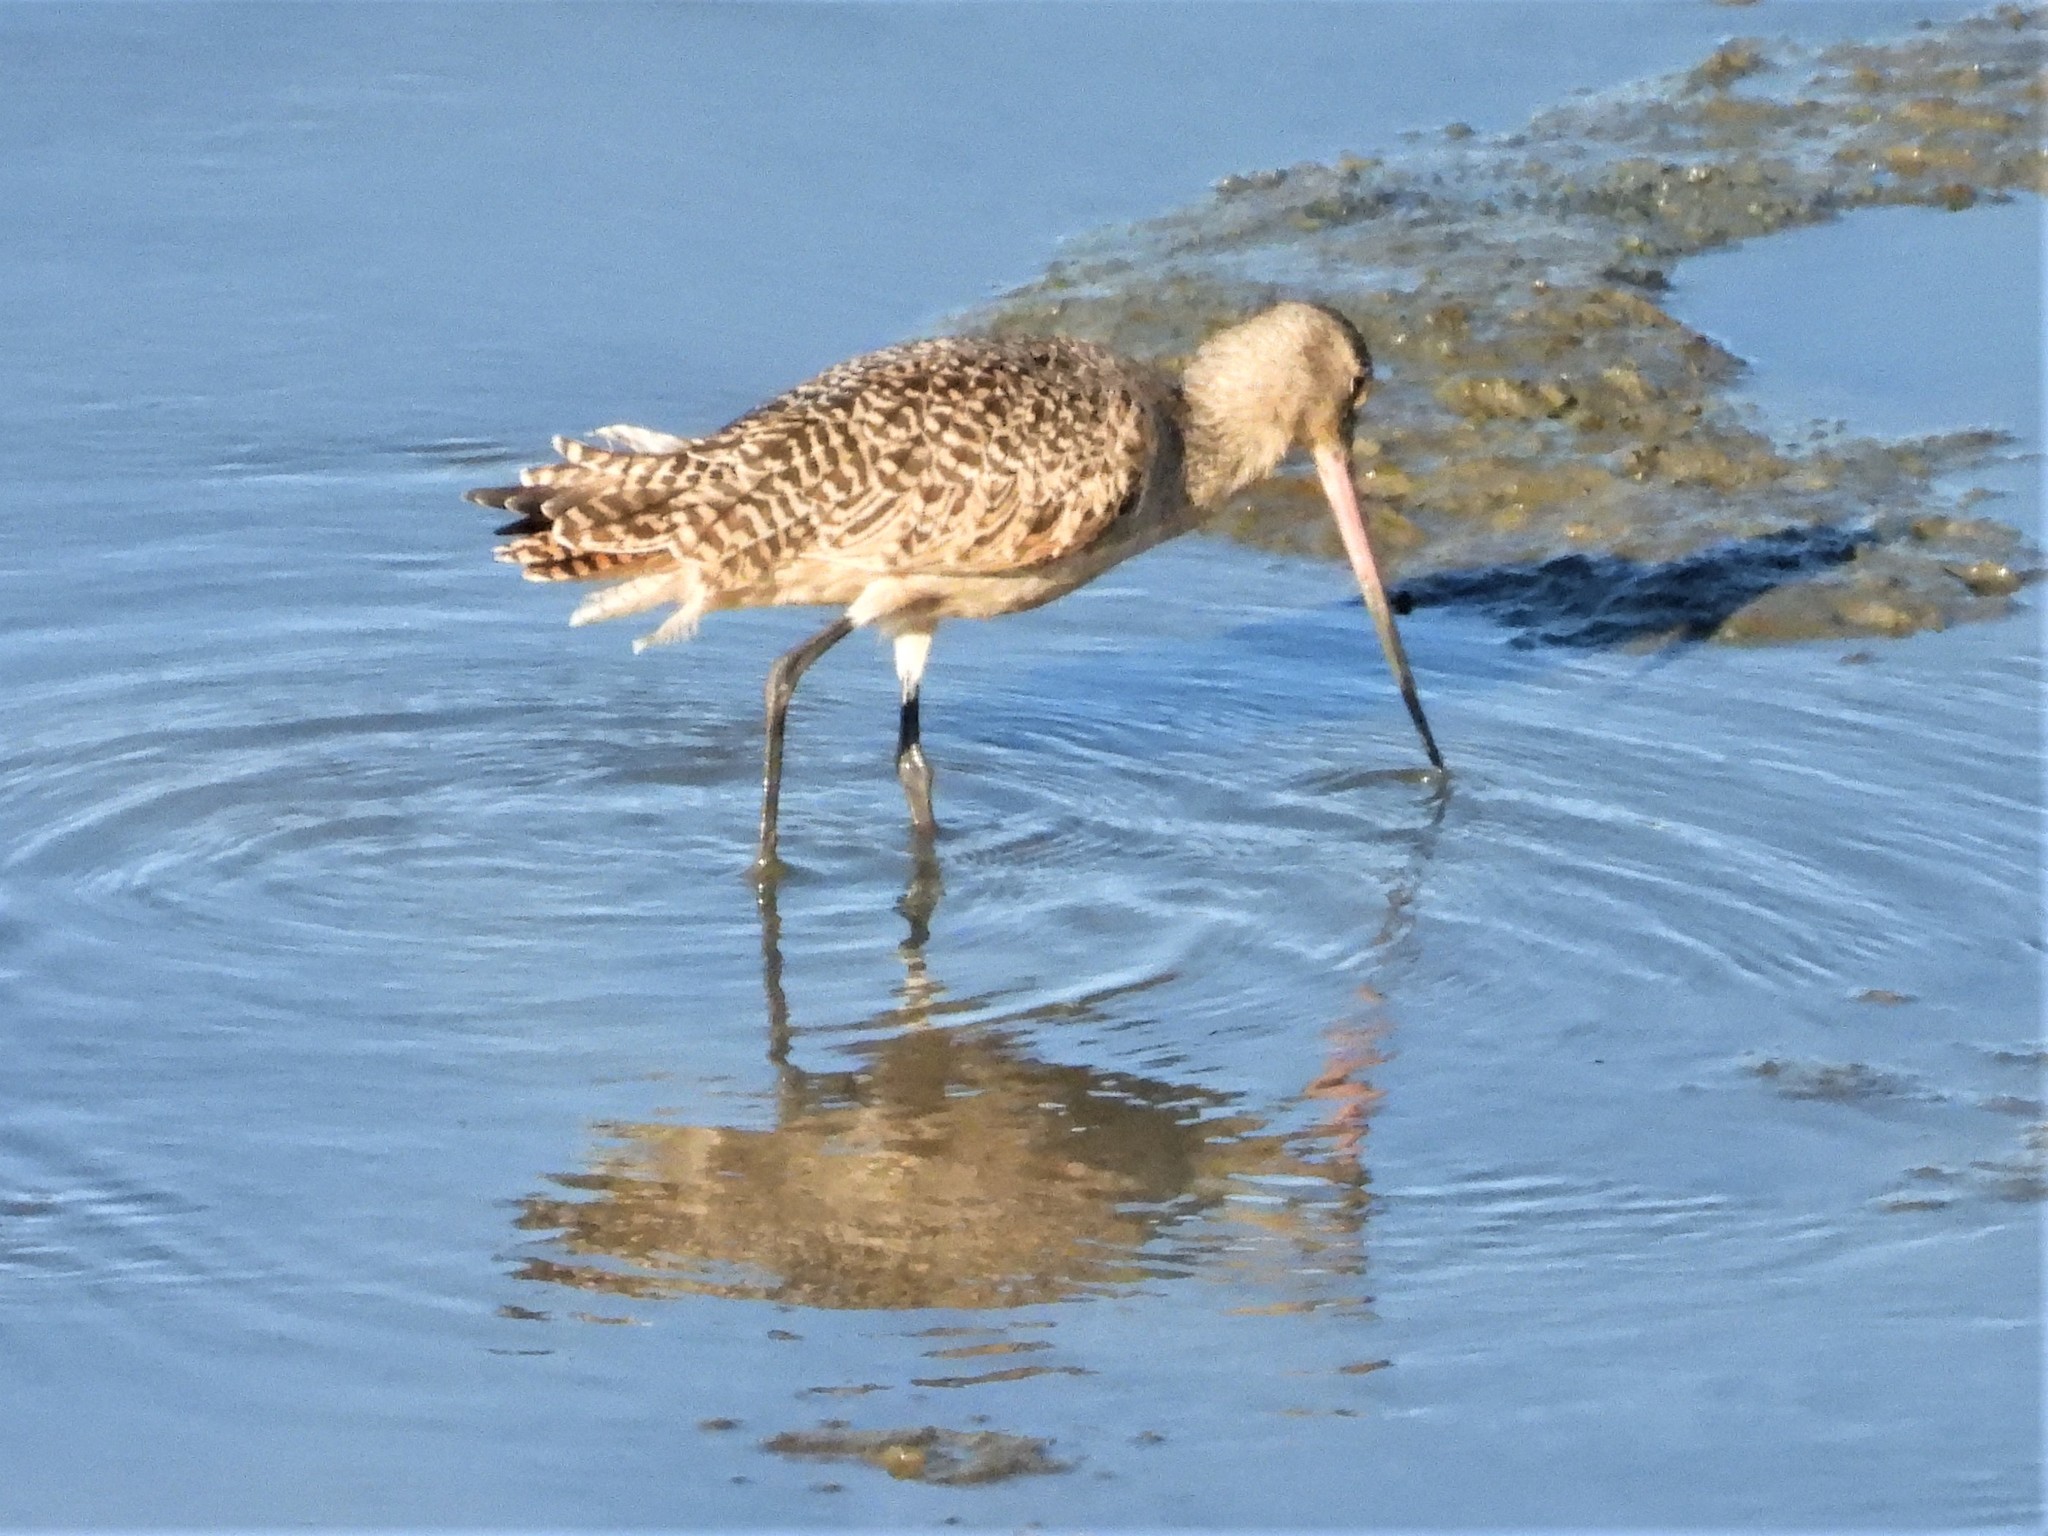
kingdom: Animalia
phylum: Chordata
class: Aves
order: Charadriiformes
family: Scolopacidae
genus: Limosa
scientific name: Limosa fedoa
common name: Marbled godwit
